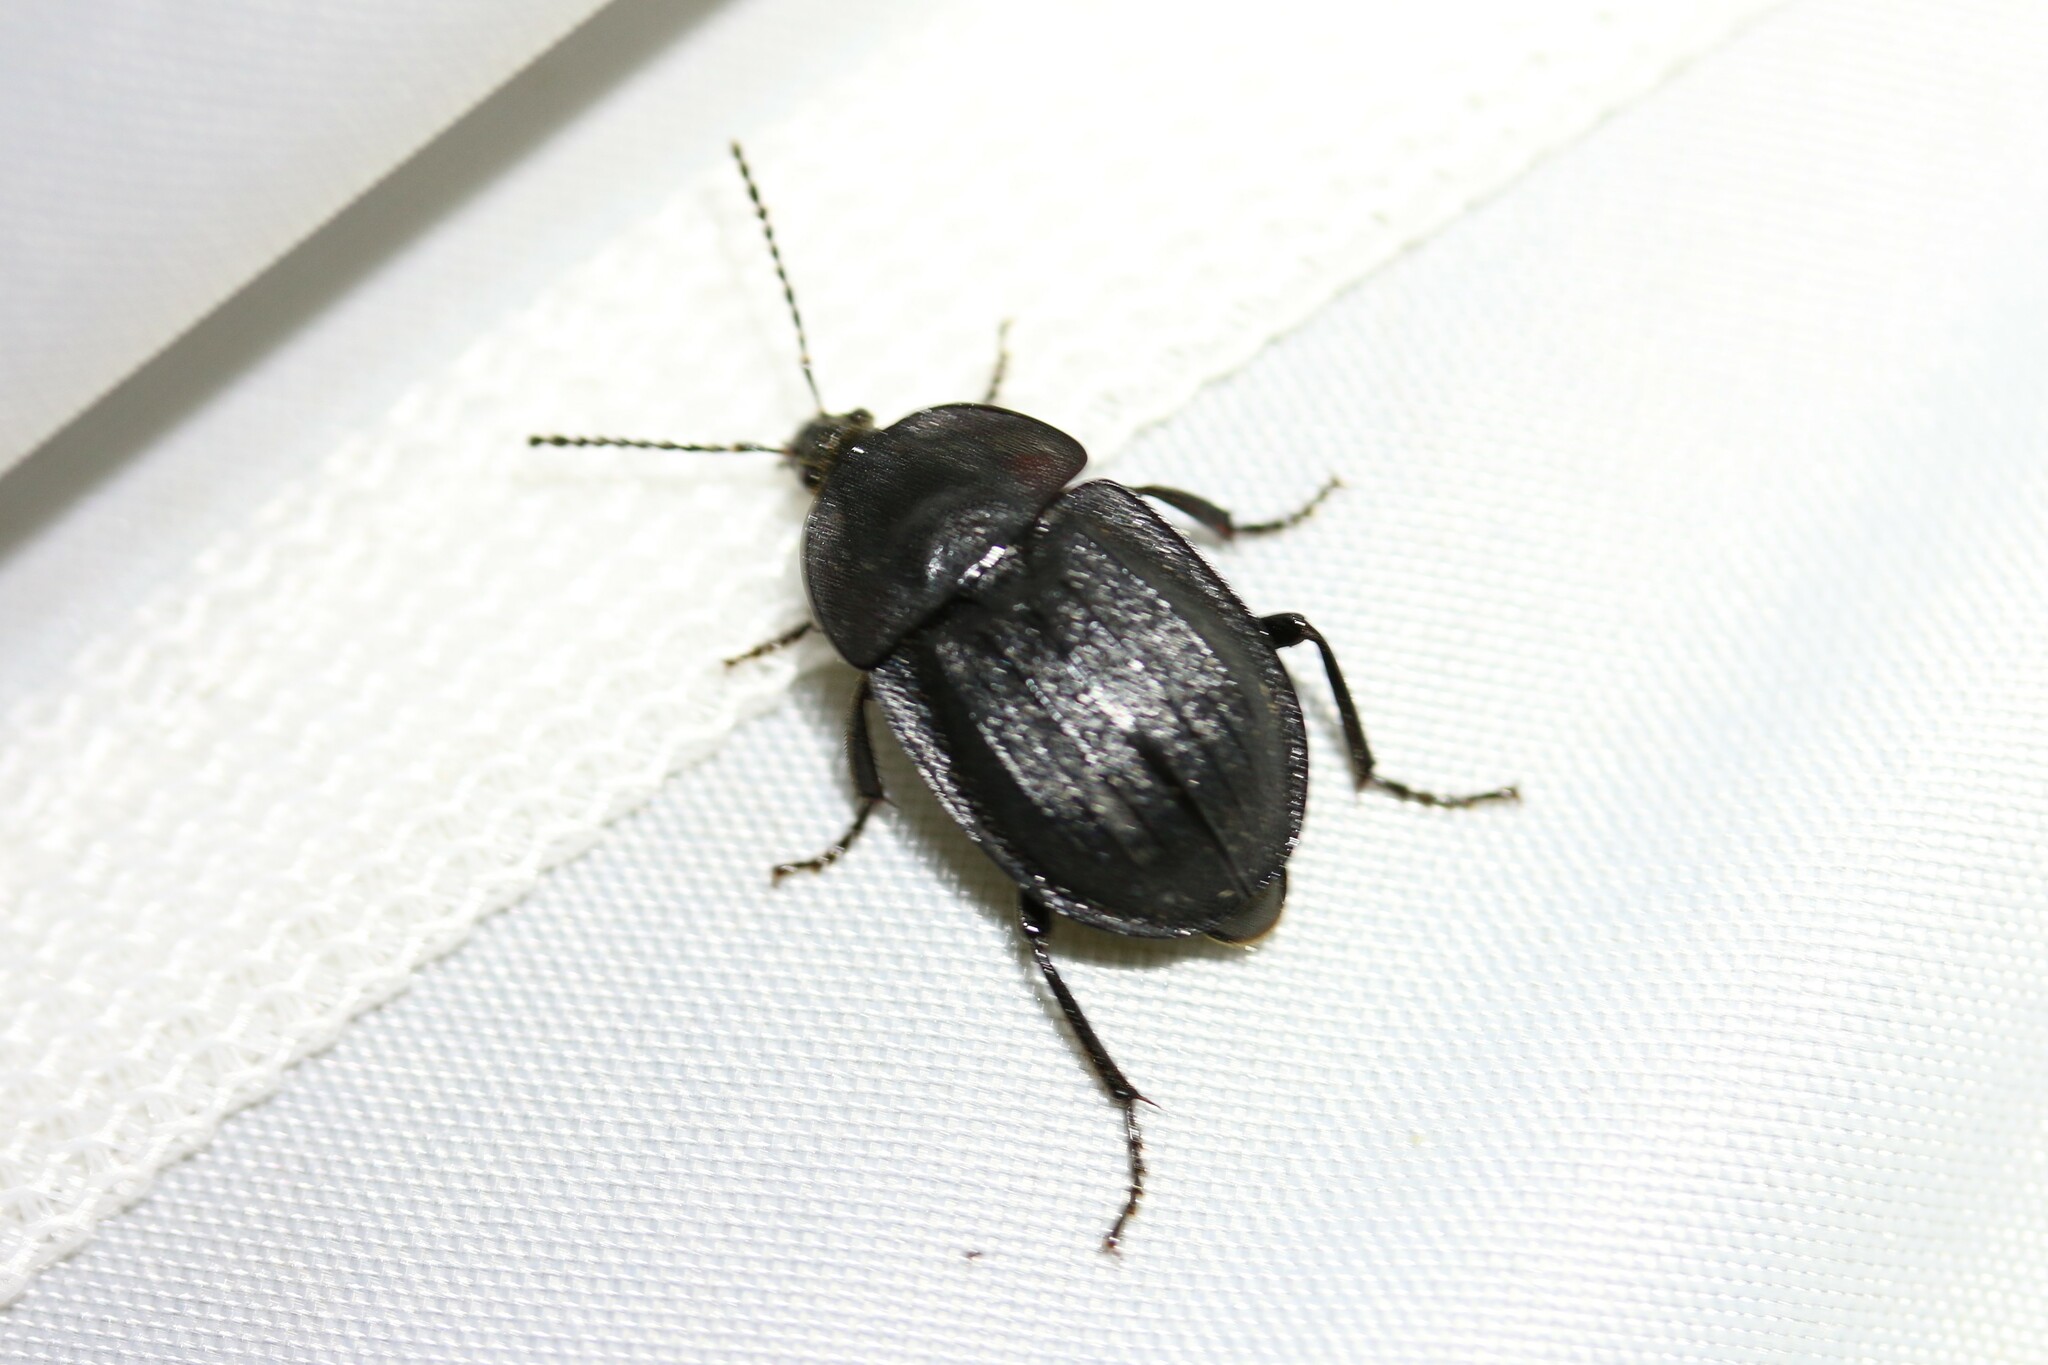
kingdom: Animalia
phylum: Arthropoda
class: Insecta
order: Coleoptera
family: Staphylinidae
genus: Silpha
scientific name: Silpha atrata
